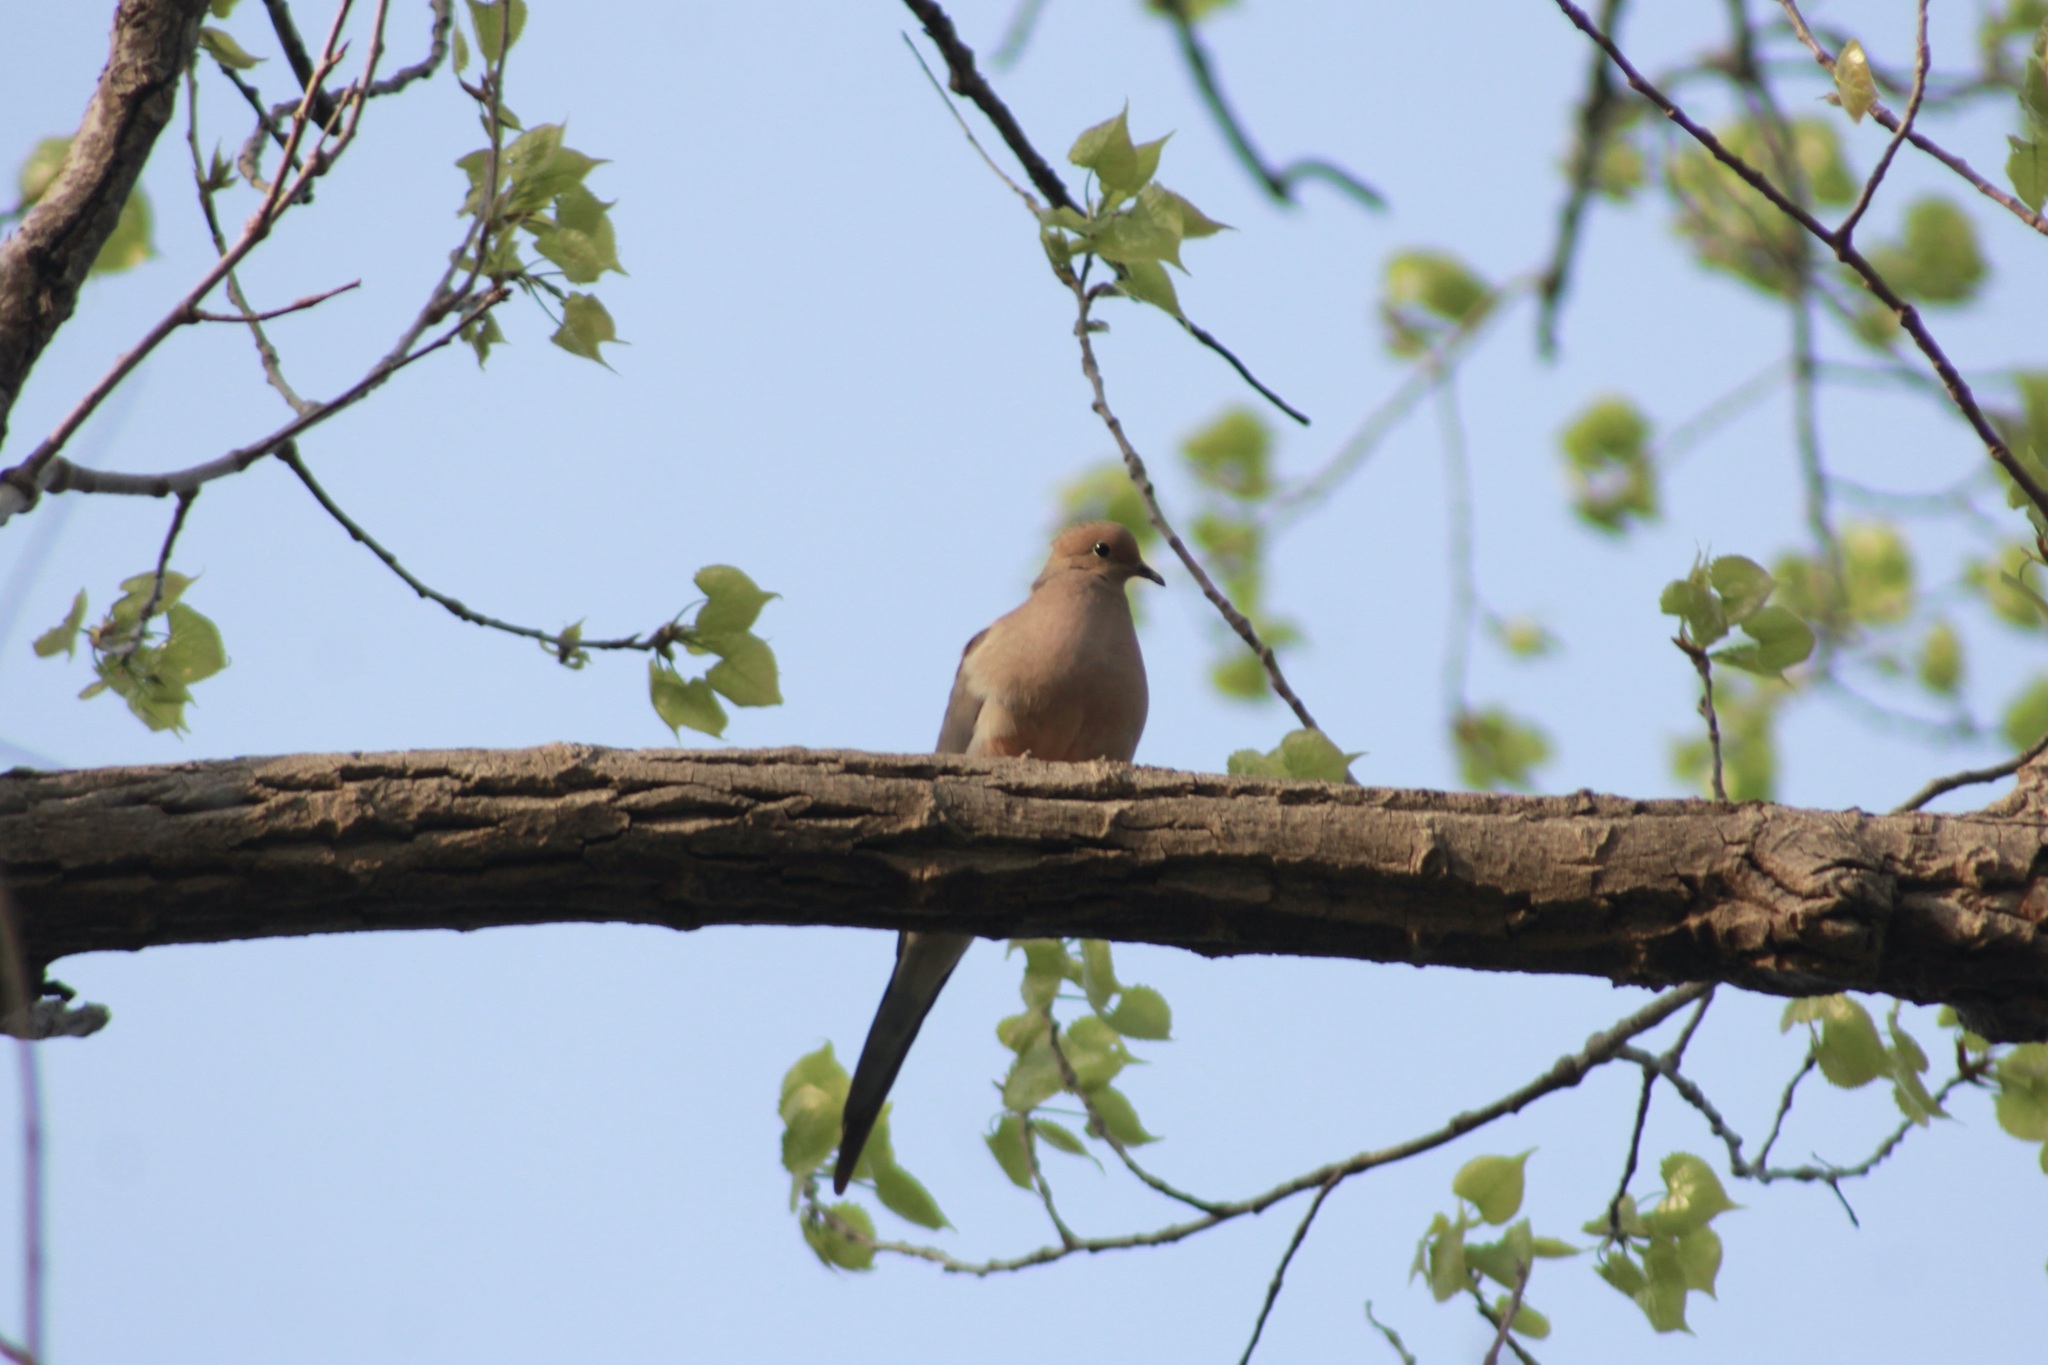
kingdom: Animalia
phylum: Chordata
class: Aves
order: Columbiformes
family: Columbidae
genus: Zenaida
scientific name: Zenaida macroura
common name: Mourning dove
